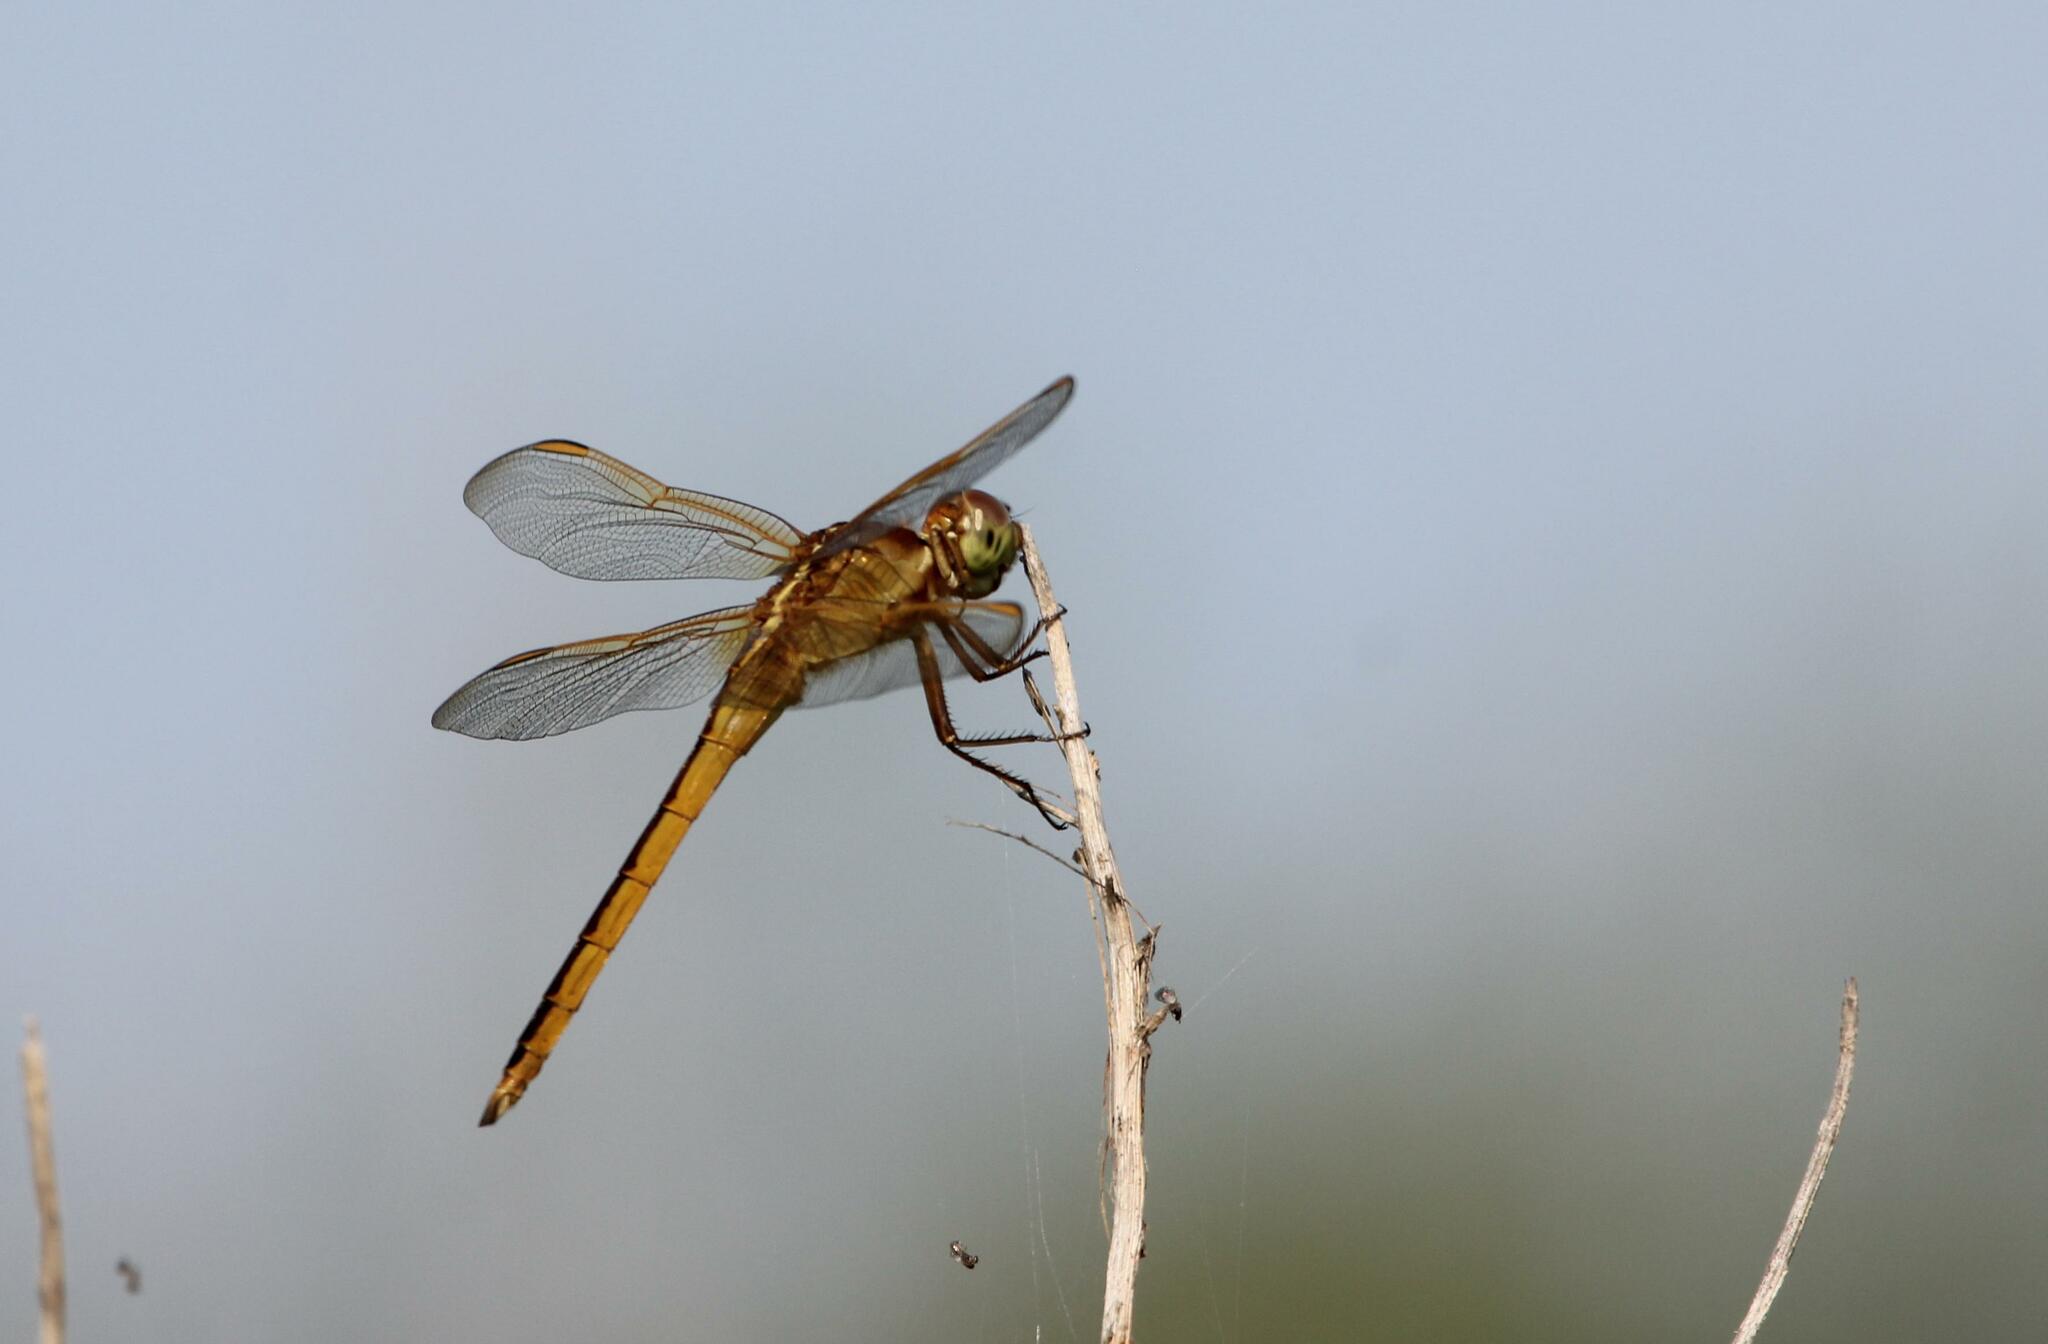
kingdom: Animalia
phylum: Arthropoda
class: Insecta
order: Odonata
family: Libellulidae
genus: Libellula
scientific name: Libellula needhami
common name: Needham's skimmer
